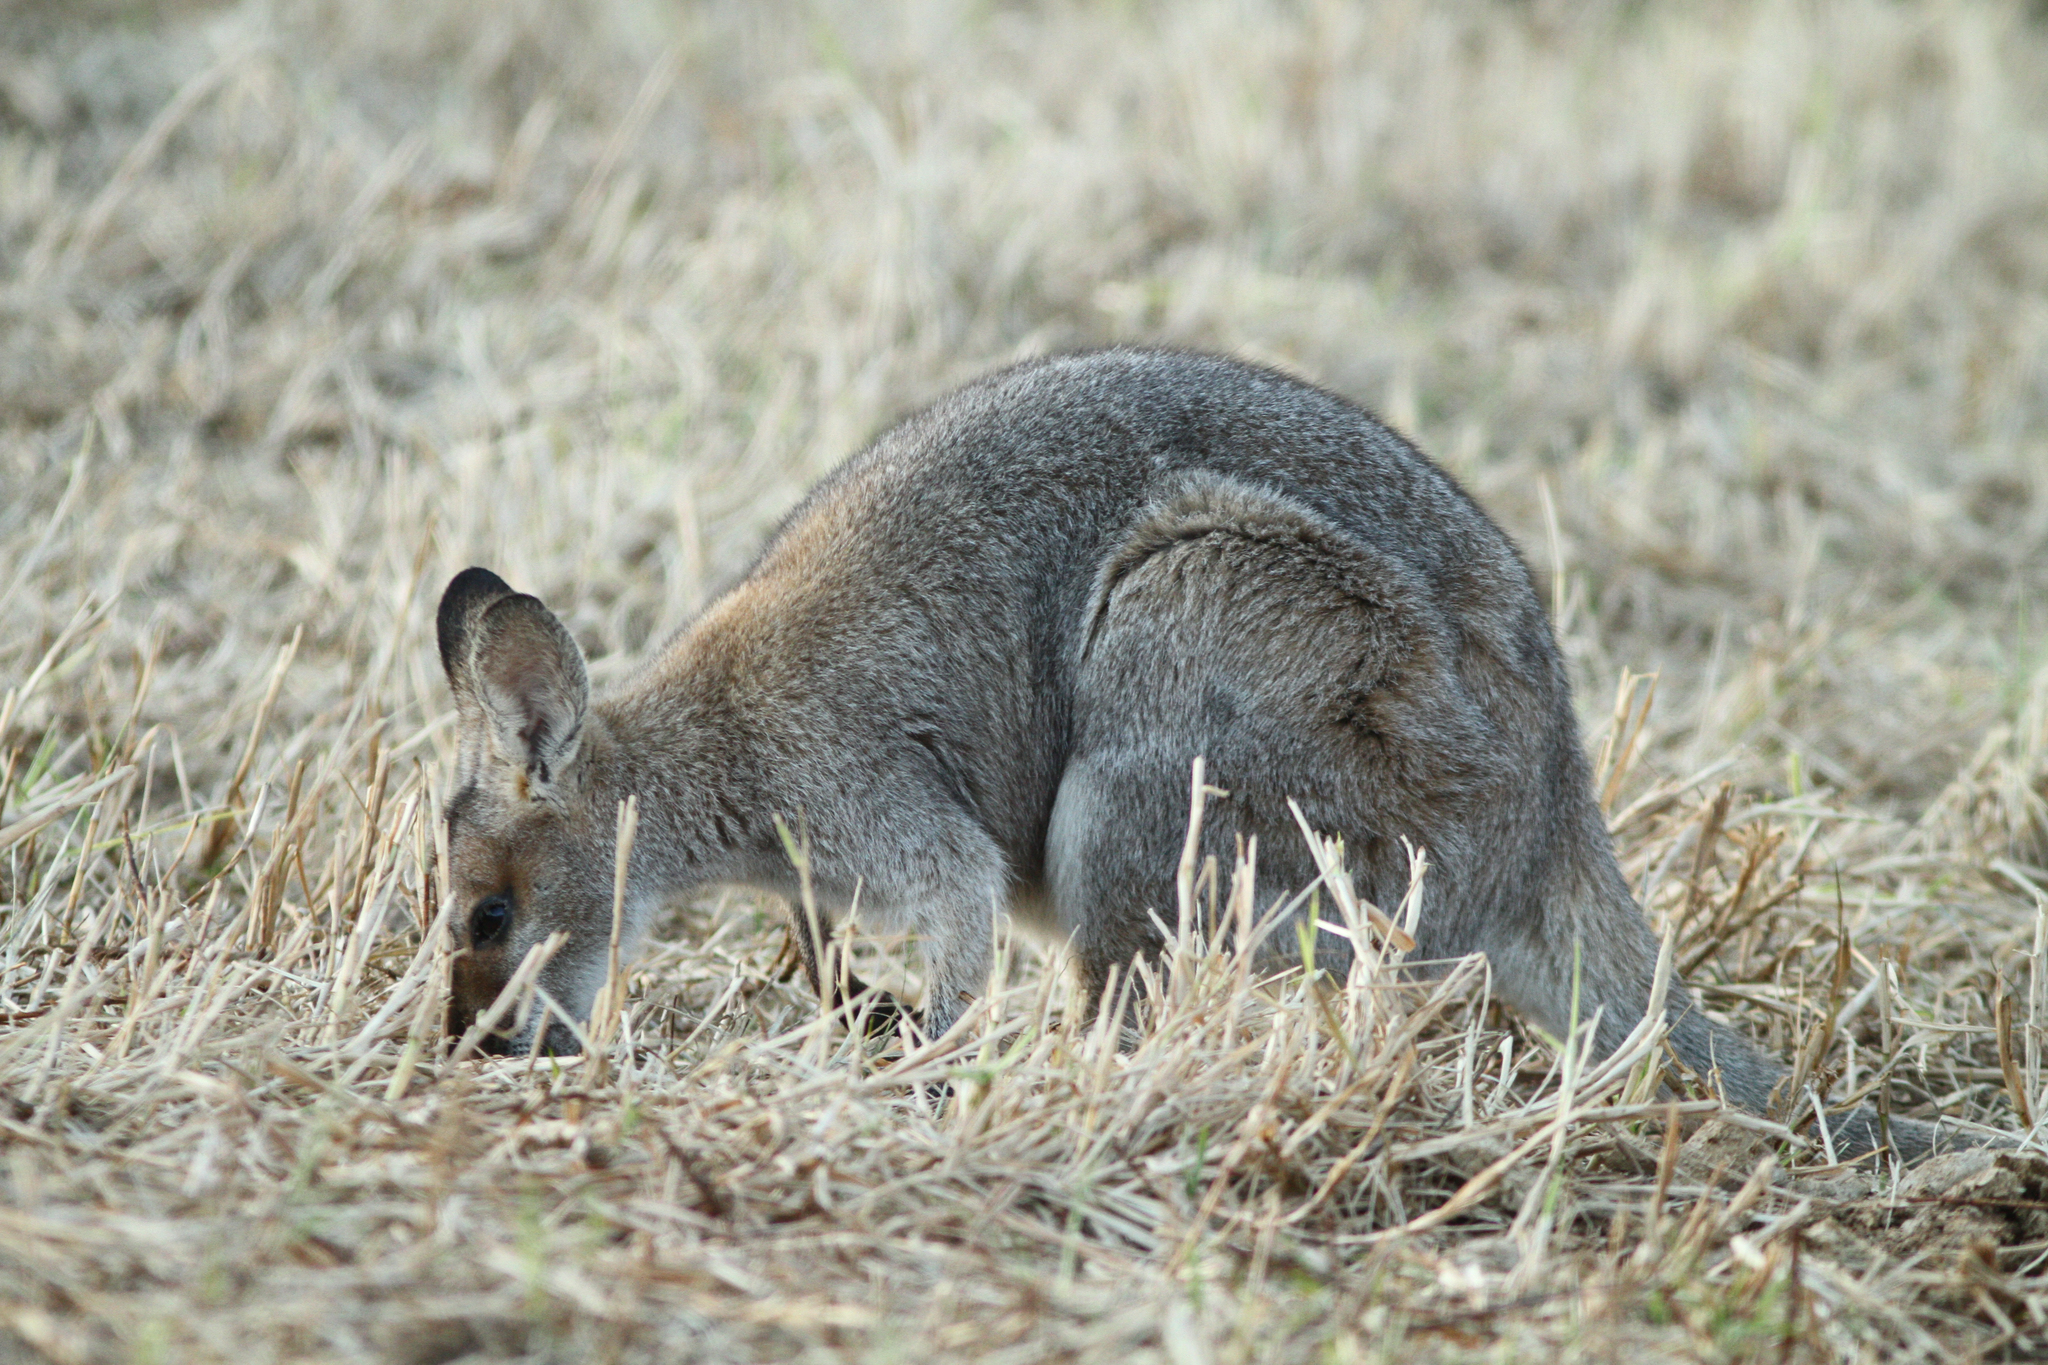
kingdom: Animalia
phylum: Chordata
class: Mammalia
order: Diprotodontia
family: Macropodidae
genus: Notamacropus
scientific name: Notamacropus rufogriseus
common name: Red-necked wallaby
